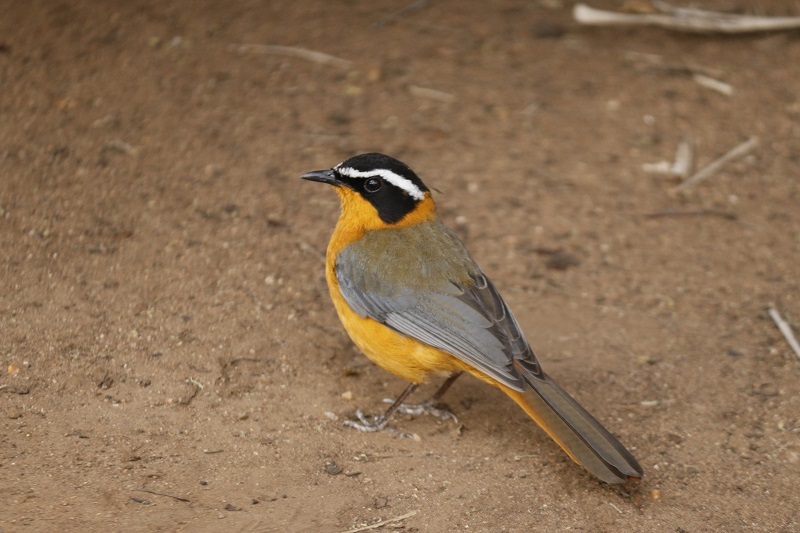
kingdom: Animalia
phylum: Chordata
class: Aves
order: Passeriformes
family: Muscicapidae
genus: Cossypha
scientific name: Cossypha heuglini
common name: White-browed robin-chat
